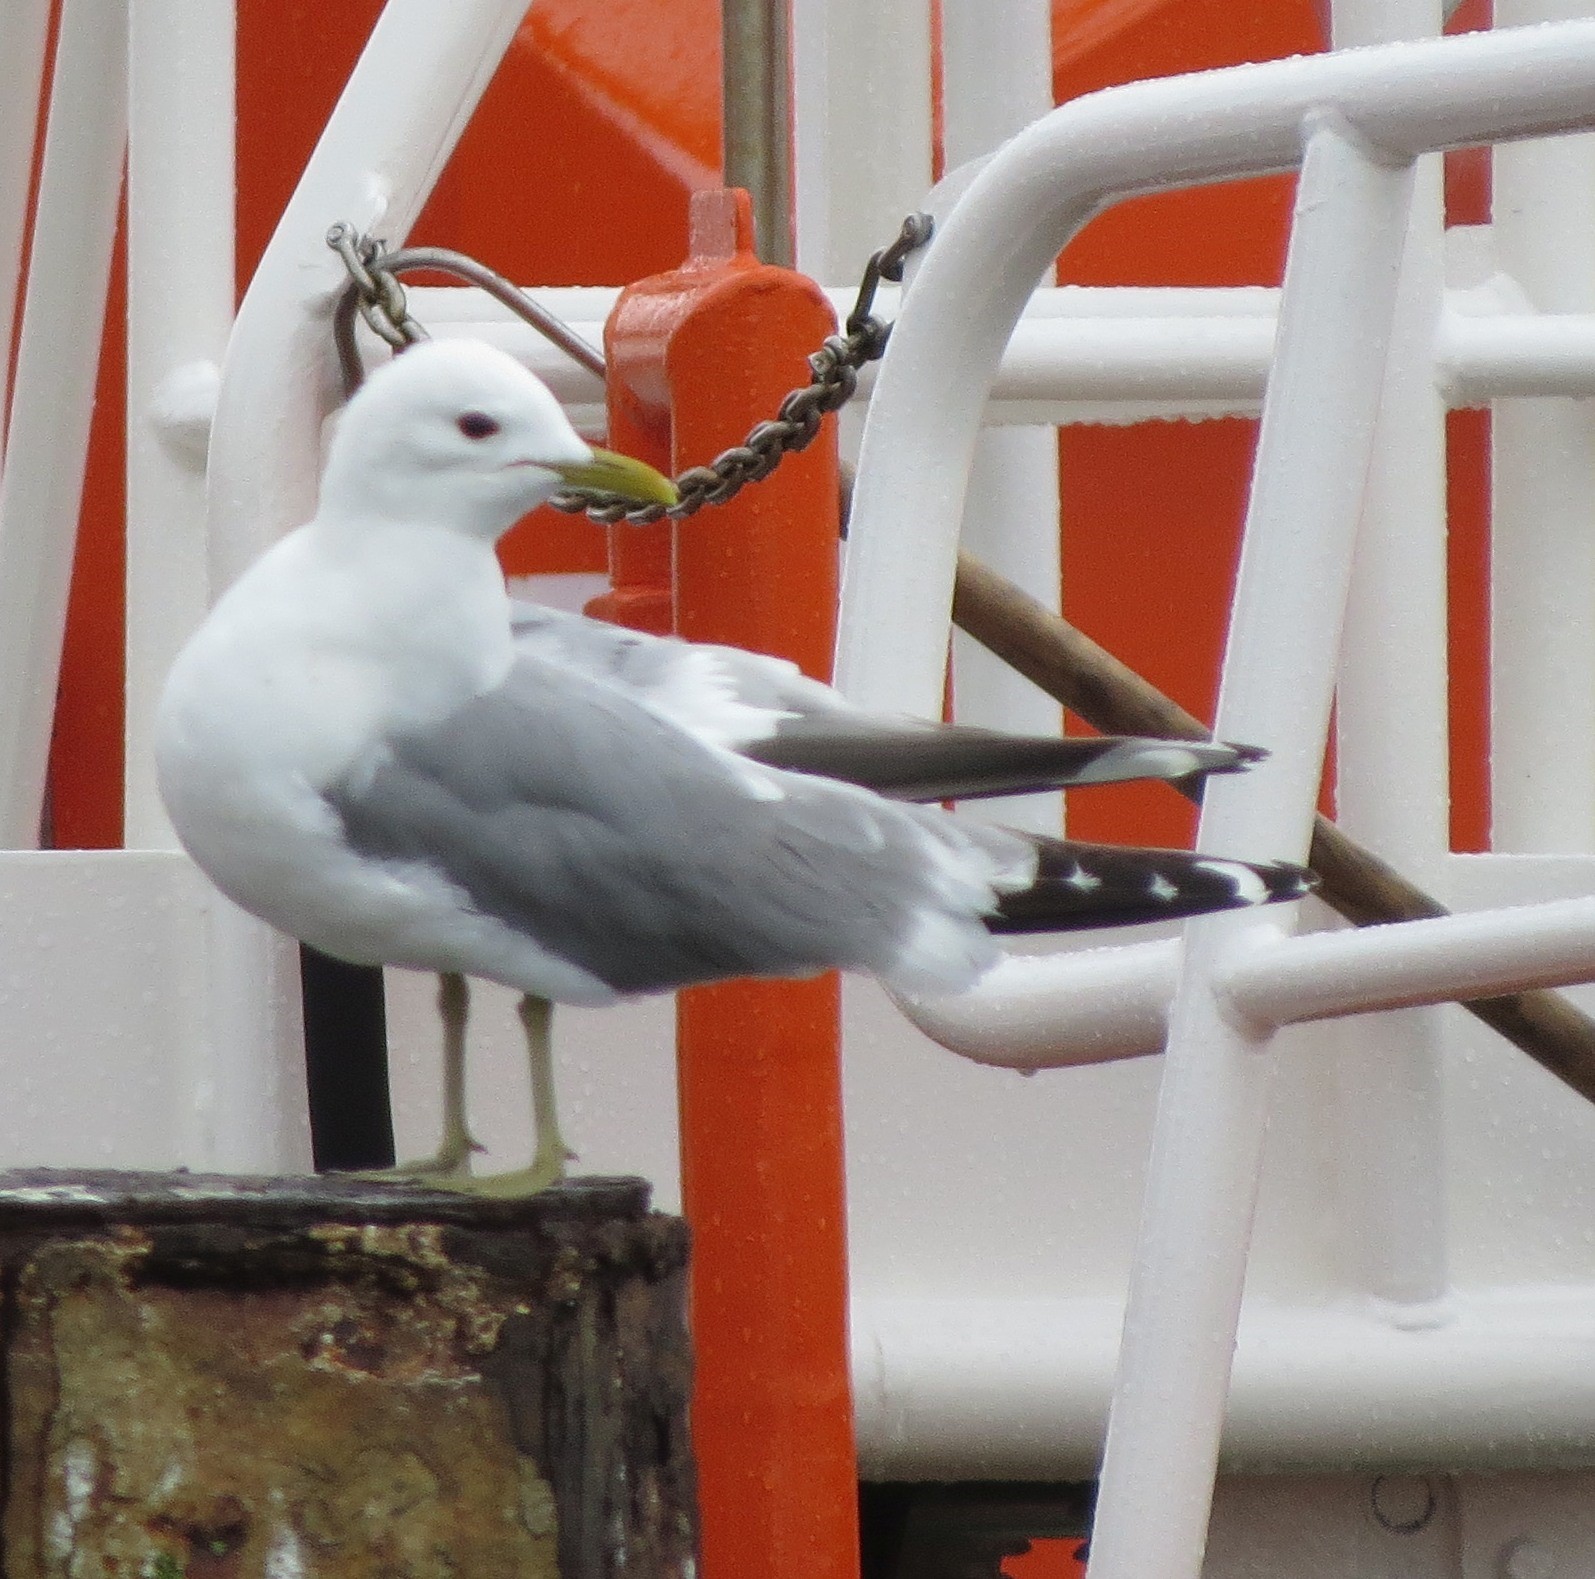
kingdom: Animalia
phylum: Chordata
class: Aves
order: Charadriiformes
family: Laridae
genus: Larus
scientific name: Larus canus
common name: Mew gull
